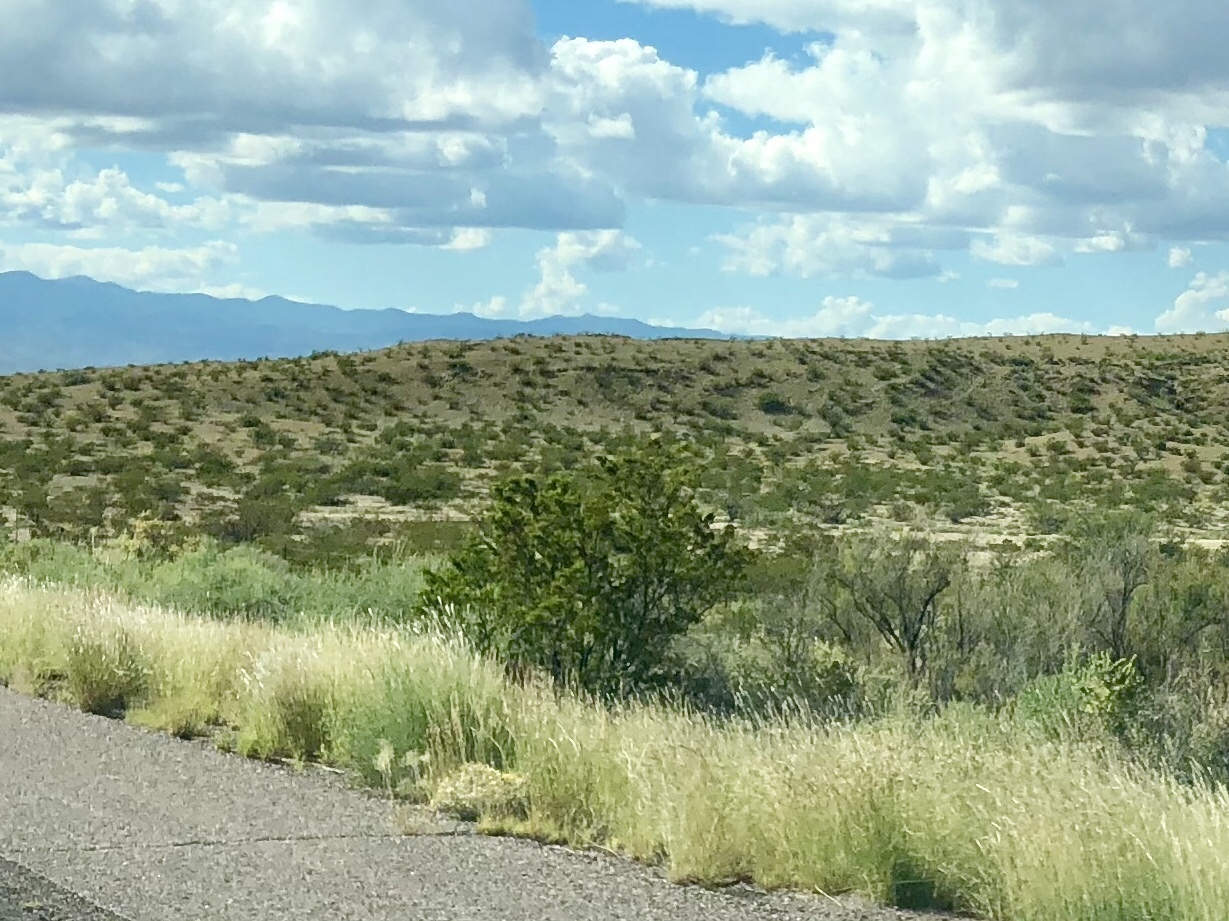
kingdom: Plantae
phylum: Tracheophyta
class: Magnoliopsida
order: Zygophyllales
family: Zygophyllaceae
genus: Larrea
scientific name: Larrea tridentata
